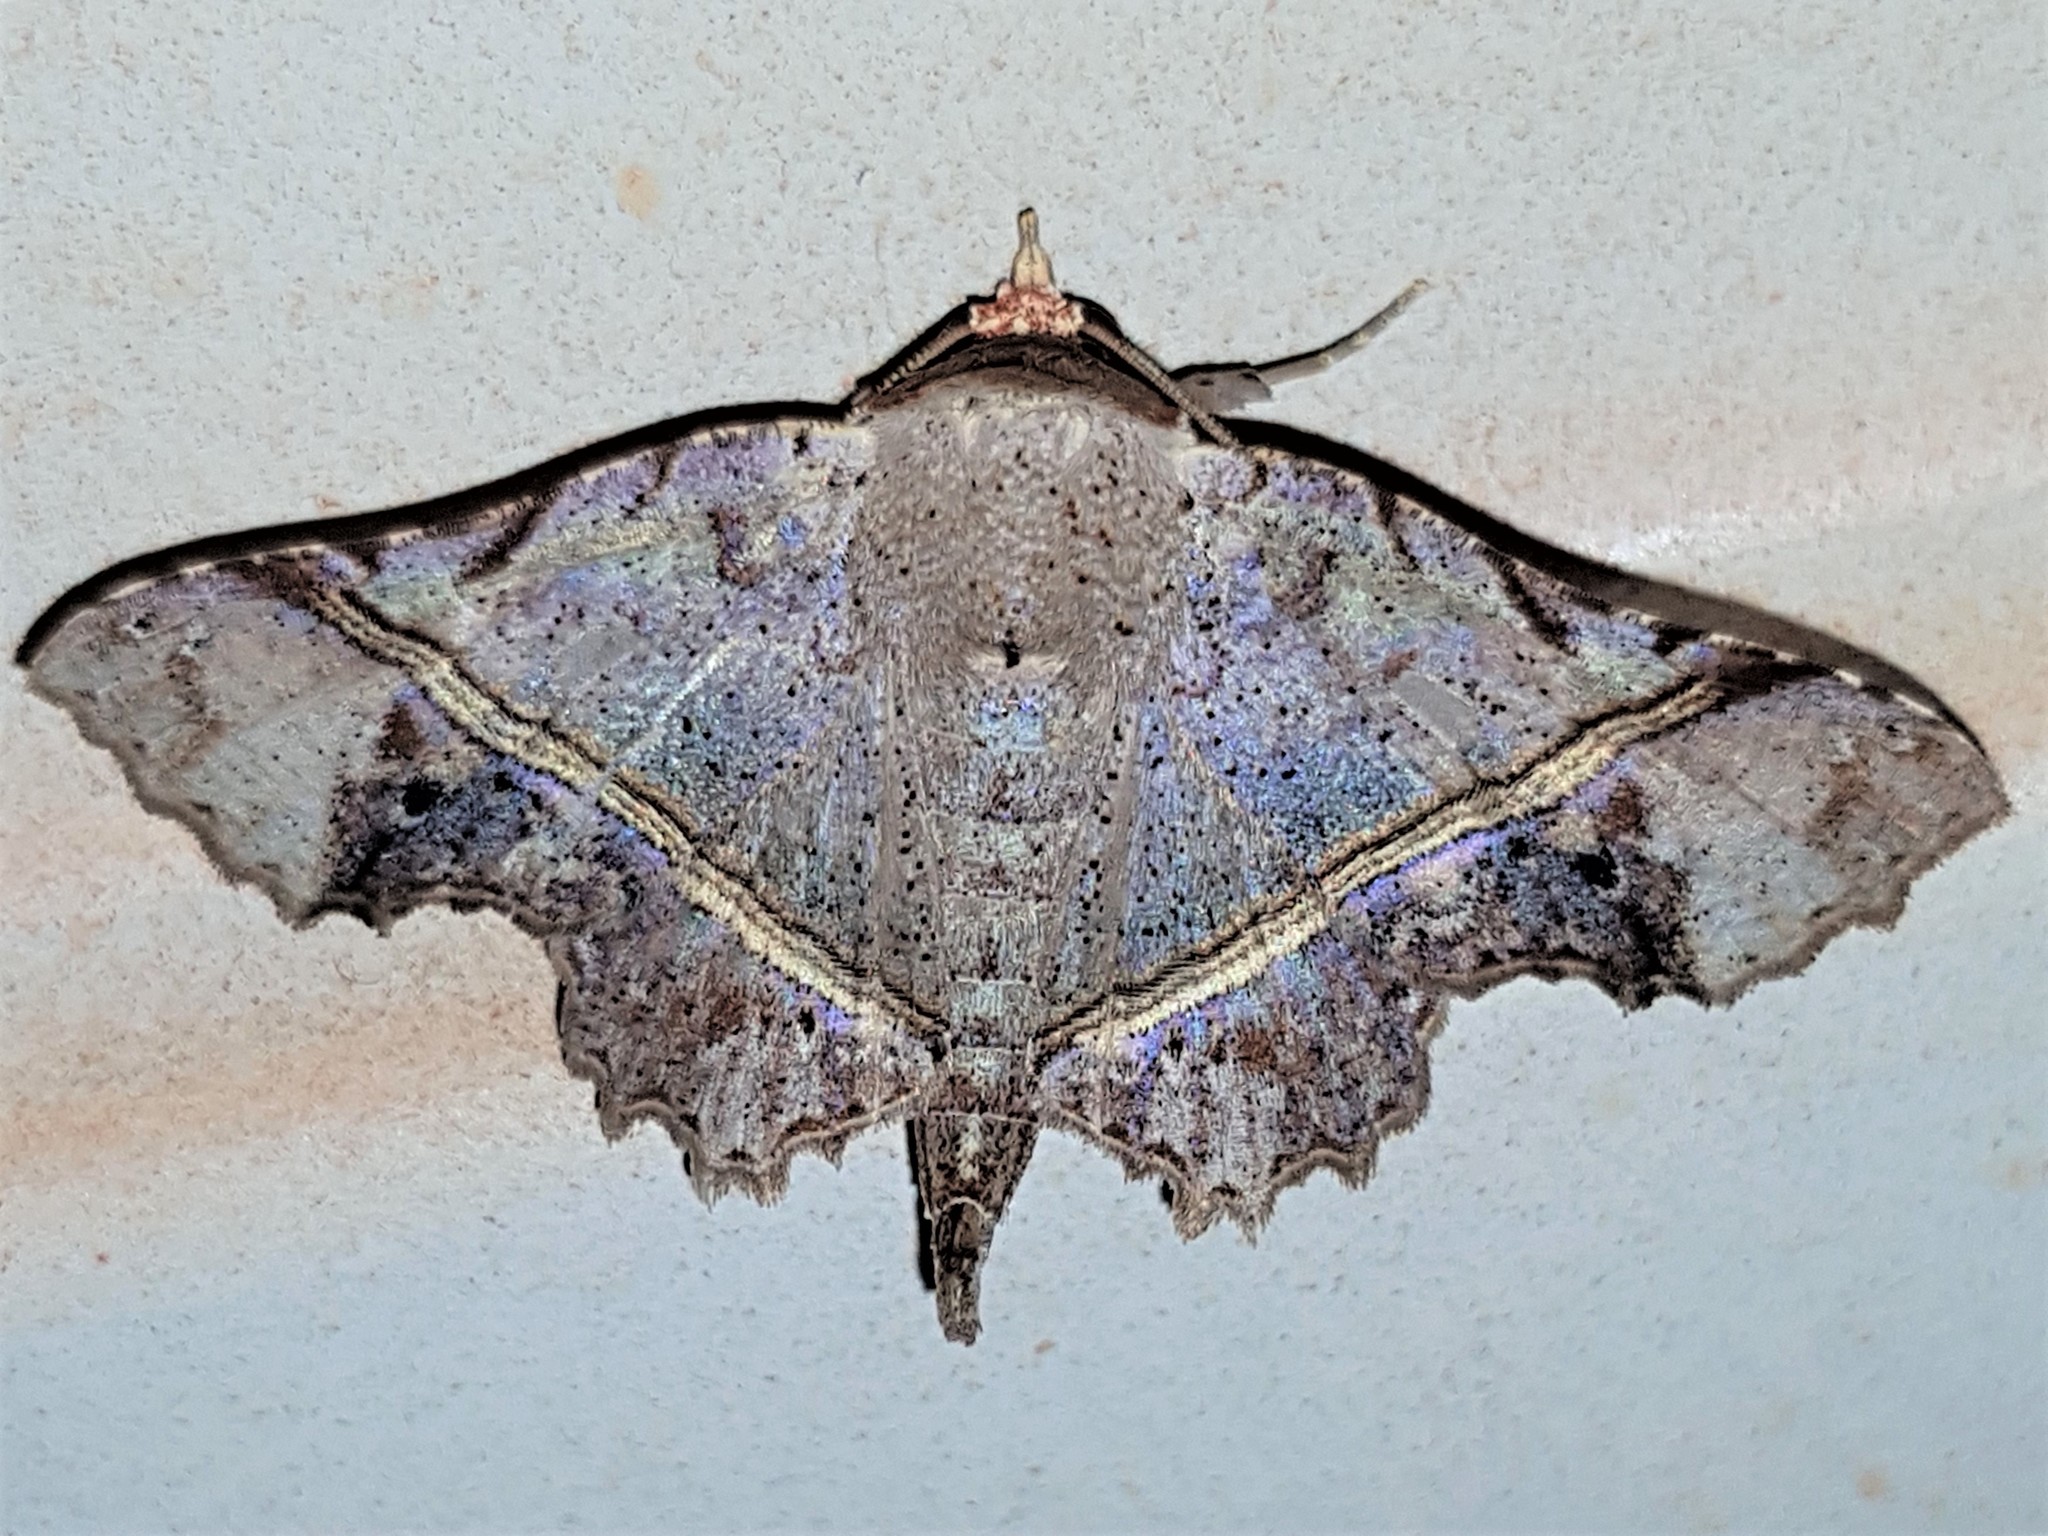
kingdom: Animalia
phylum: Arthropoda
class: Insecta
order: Lepidoptera
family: Erebidae
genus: Gonuris
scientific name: Gonuris flaminia
